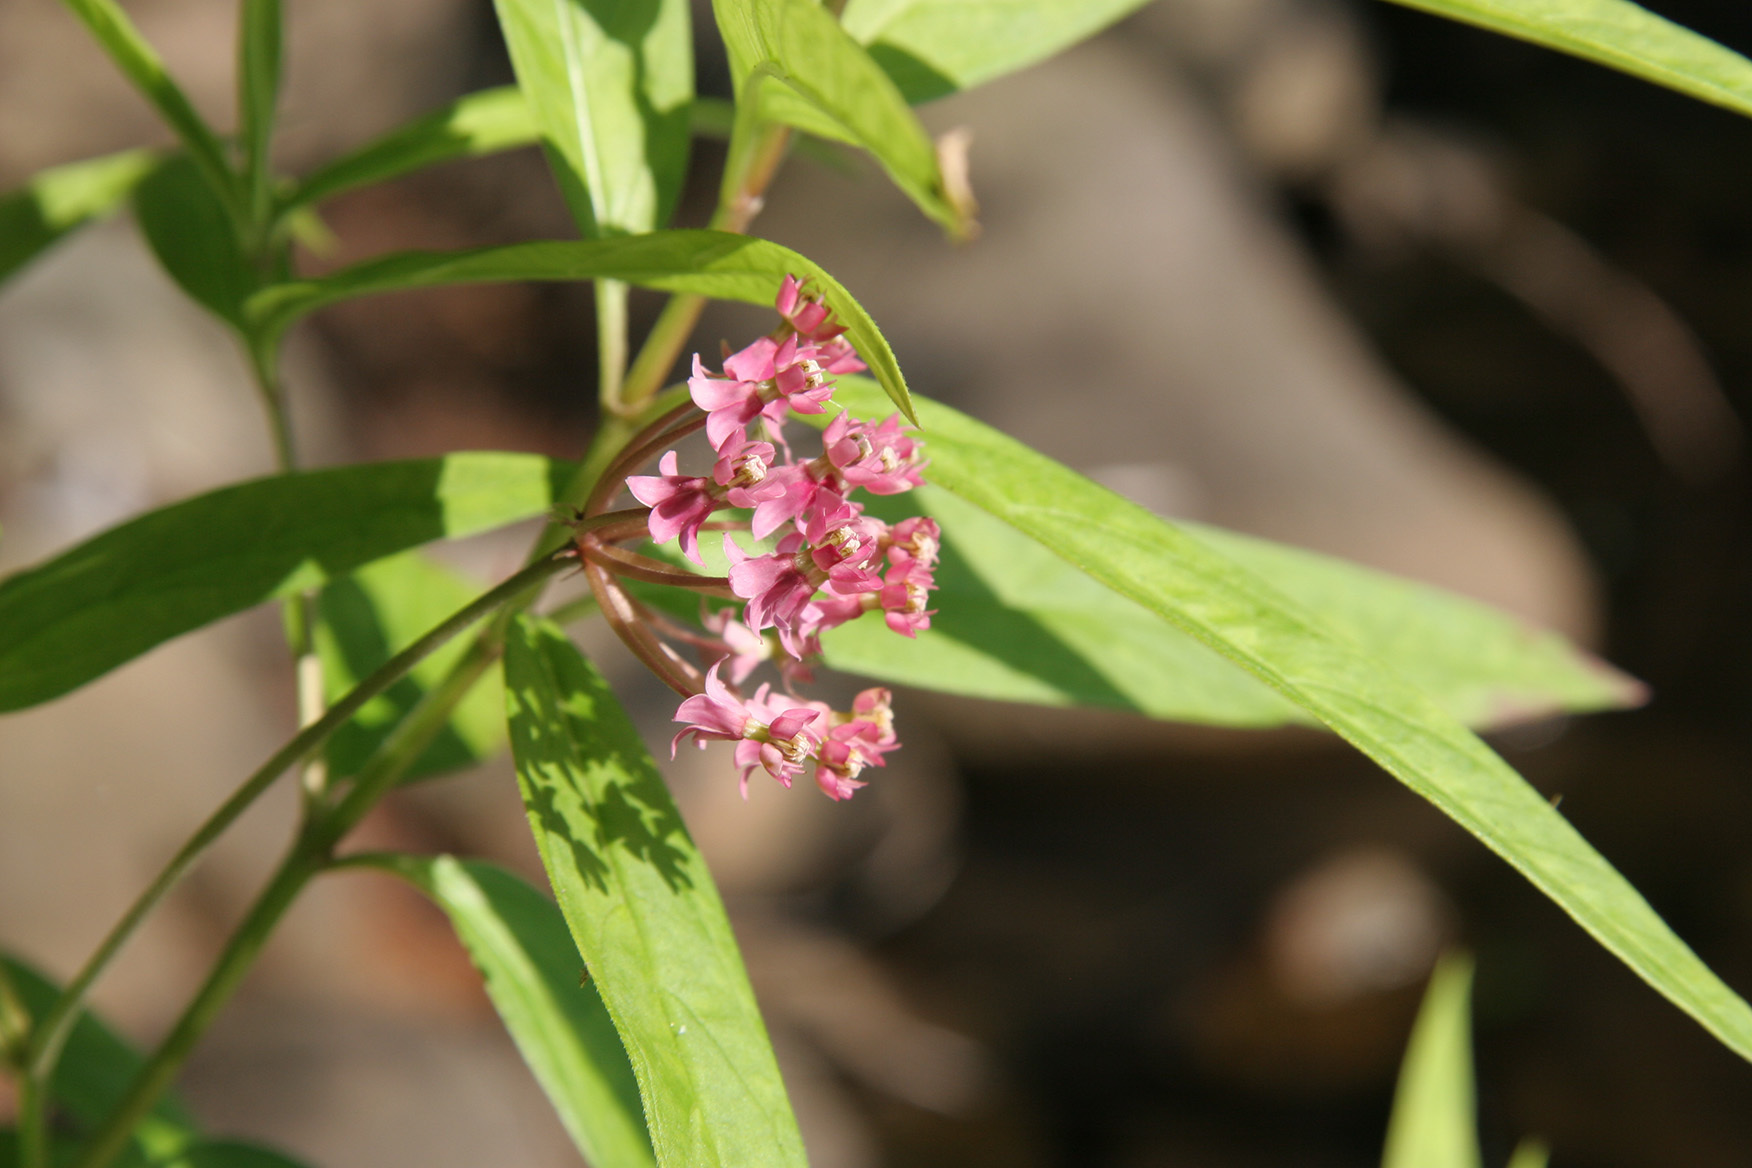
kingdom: Plantae
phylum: Tracheophyta
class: Magnoliopsida
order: Gentianales
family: Apocynaceae
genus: Asclepias
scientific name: Asclepias incarnata
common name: Swamp milkweed
